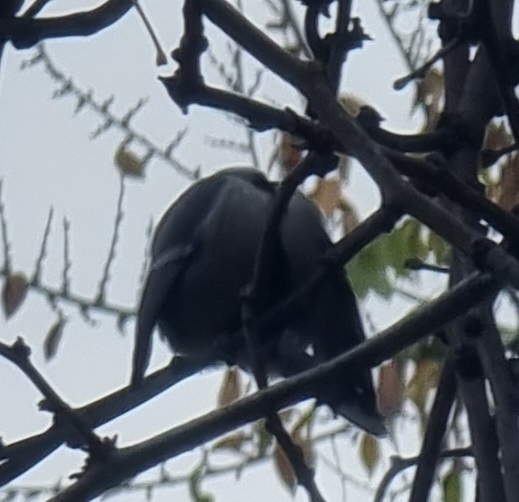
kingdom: Animalia
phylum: Chordata
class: Aves
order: Passeriformes
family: Paridae
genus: Parus
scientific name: Parus major
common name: Great tit
